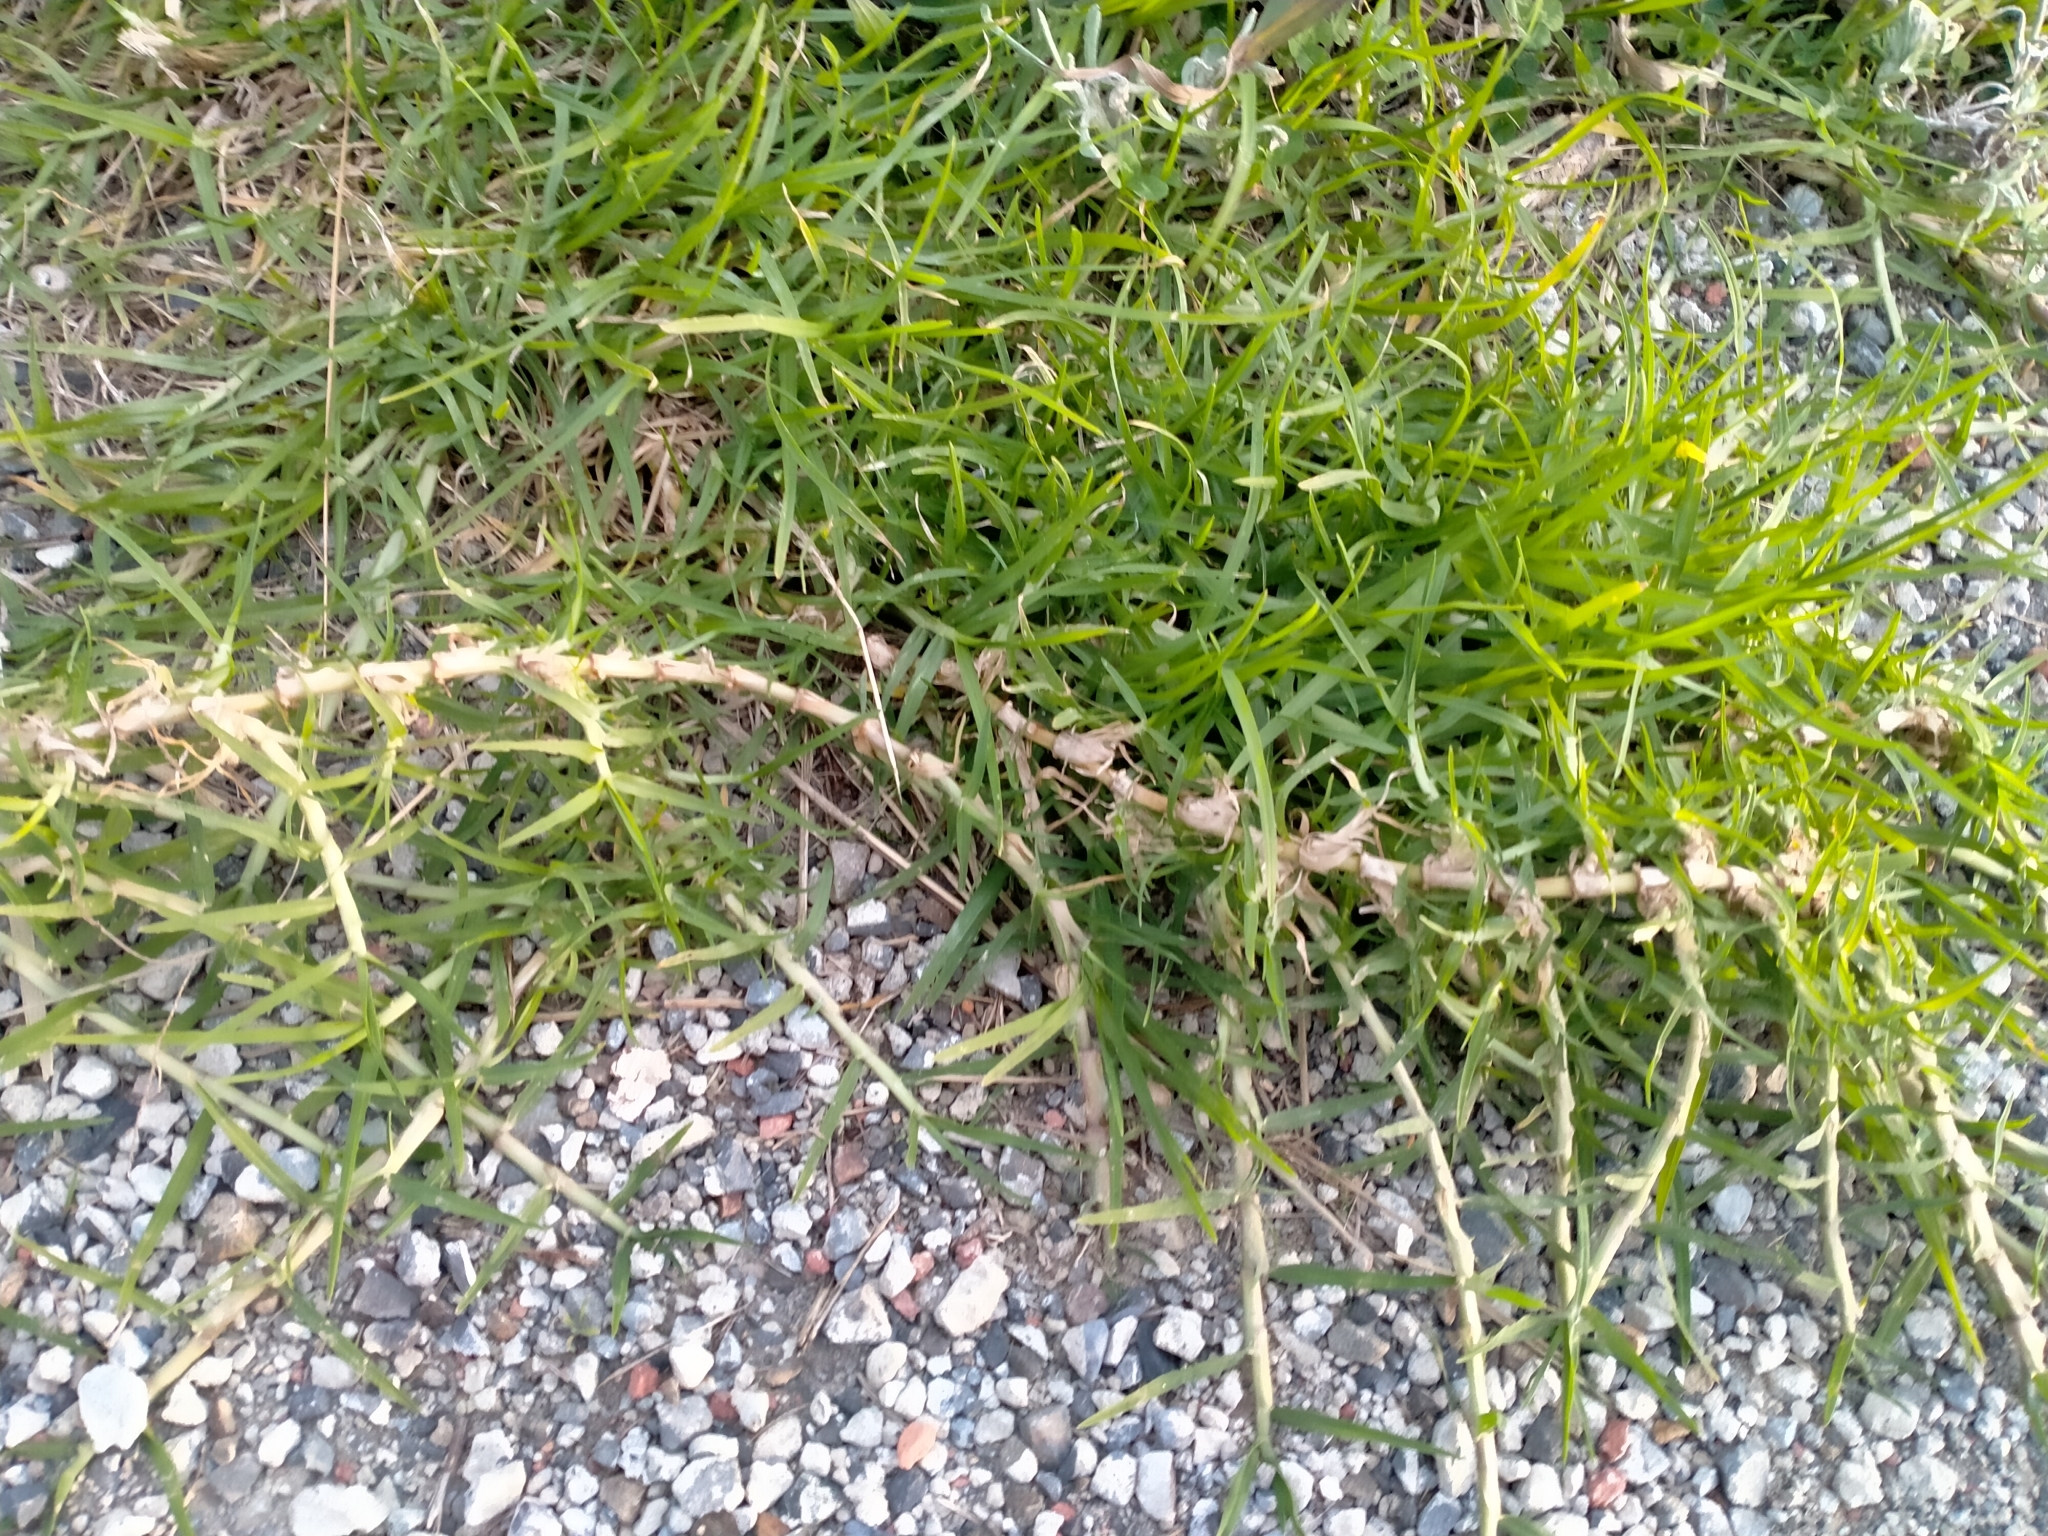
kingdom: Plantae
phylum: Tracheophyta
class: Liliopsida
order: Poales
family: Poaceae
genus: Cenchrus
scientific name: Cenchrus clandestinus
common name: Kikuyugrass
